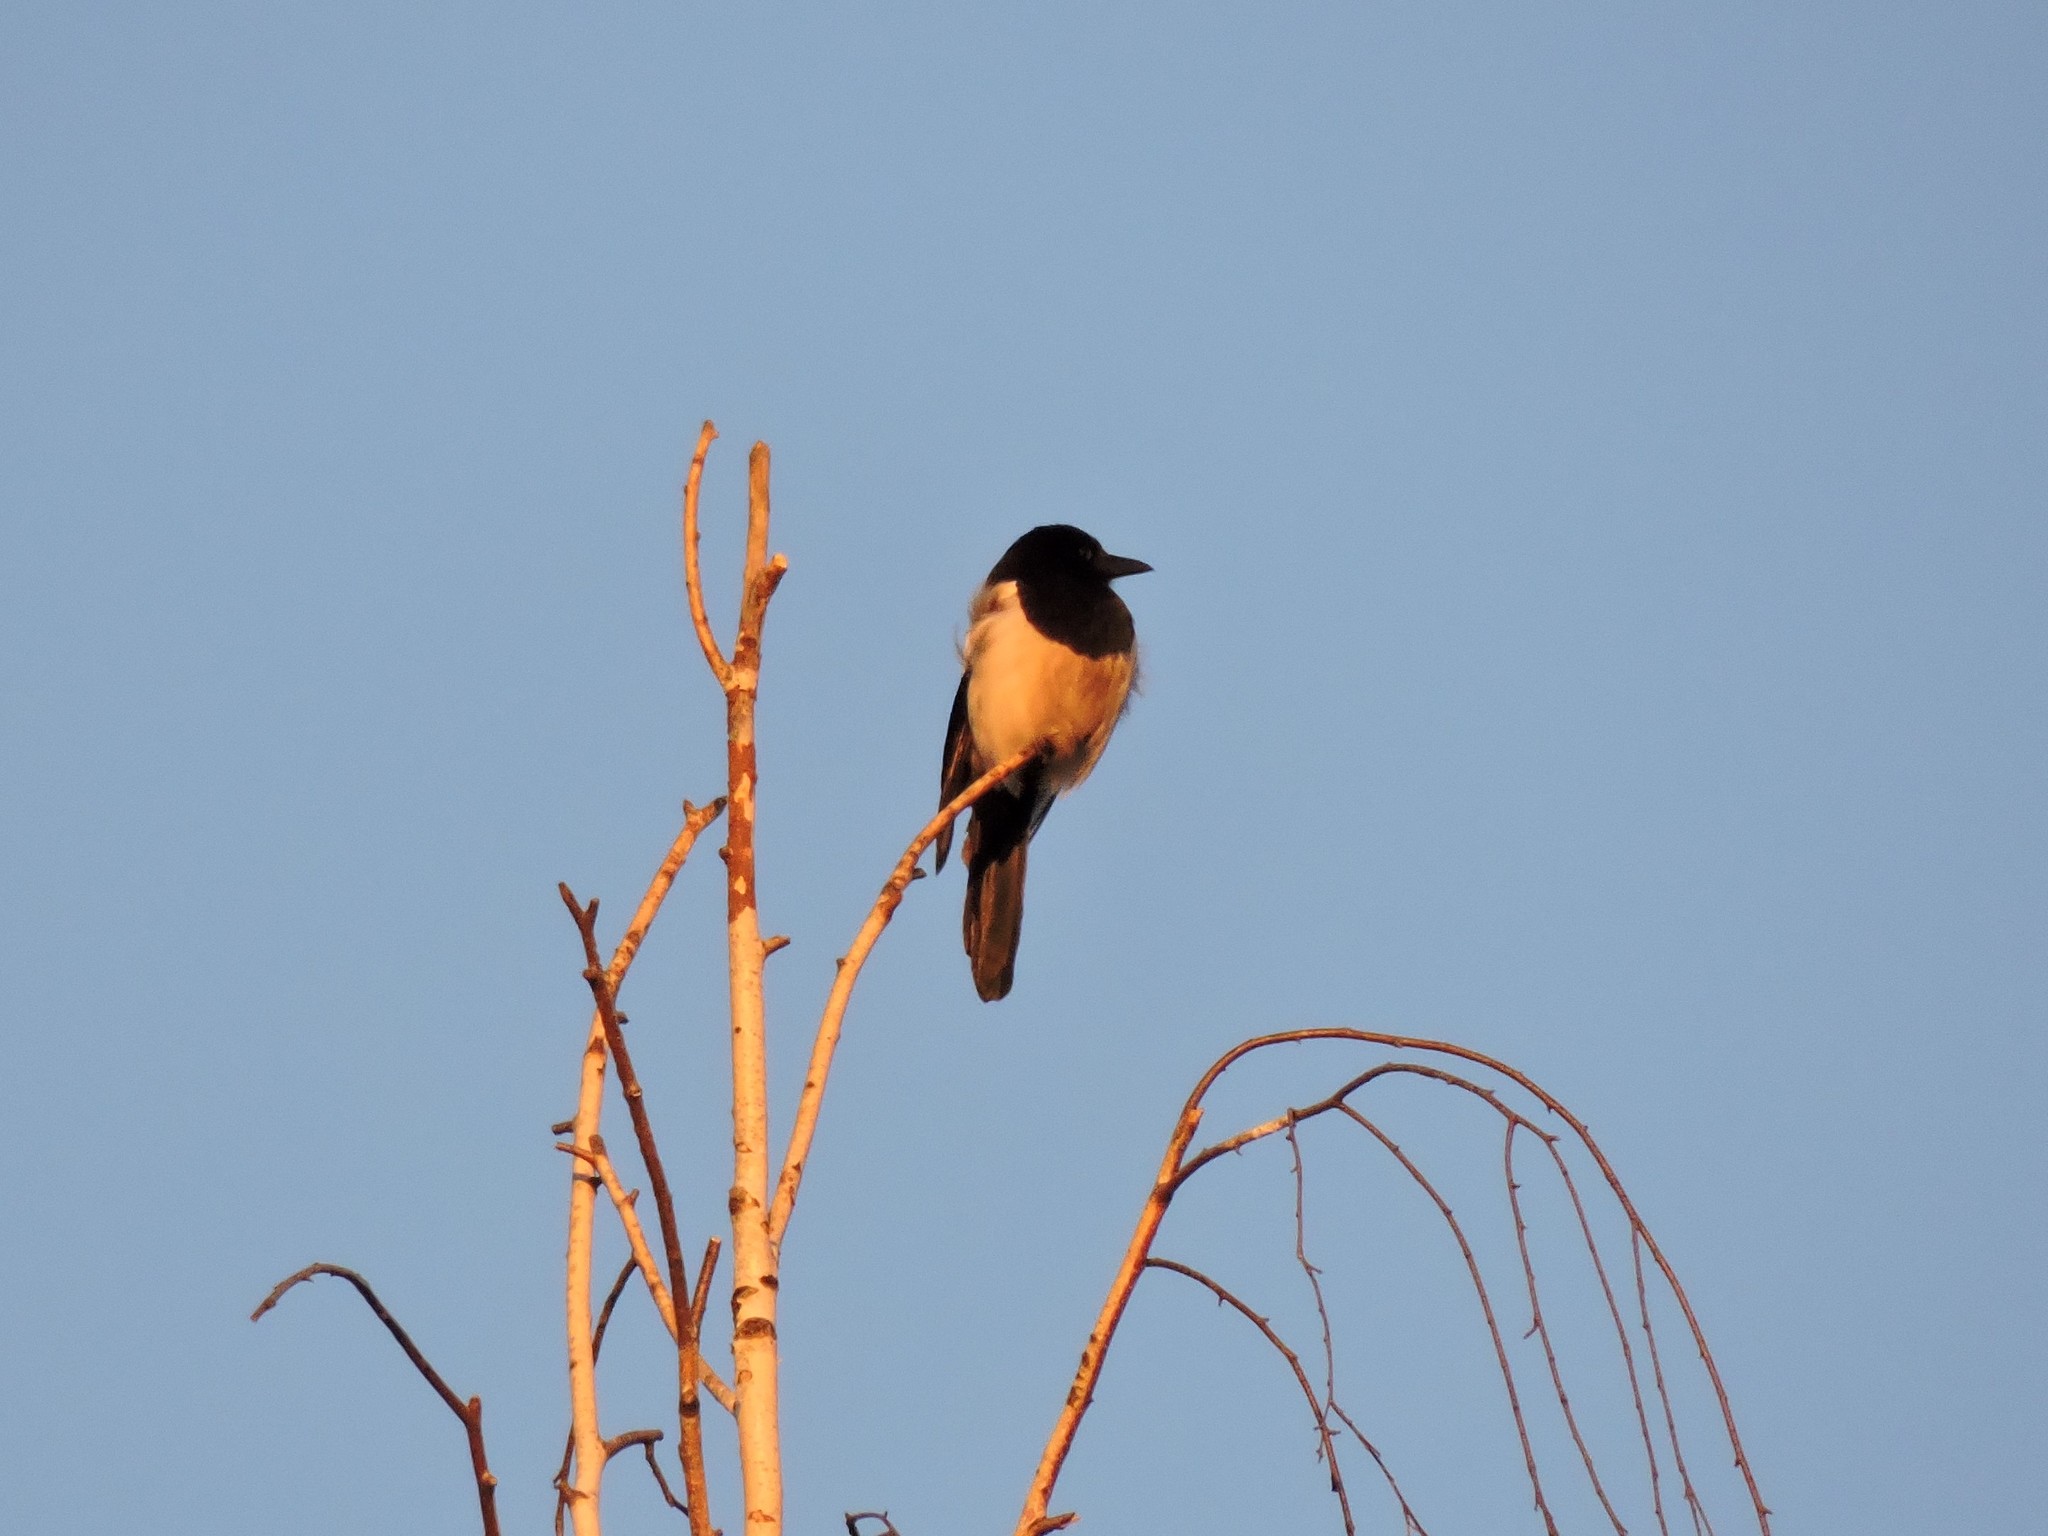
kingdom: Animalia
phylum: Chordata
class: Aves
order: Passeriformes
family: Corvidae
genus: Pica
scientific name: Pica pica
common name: Eurasian magpie
